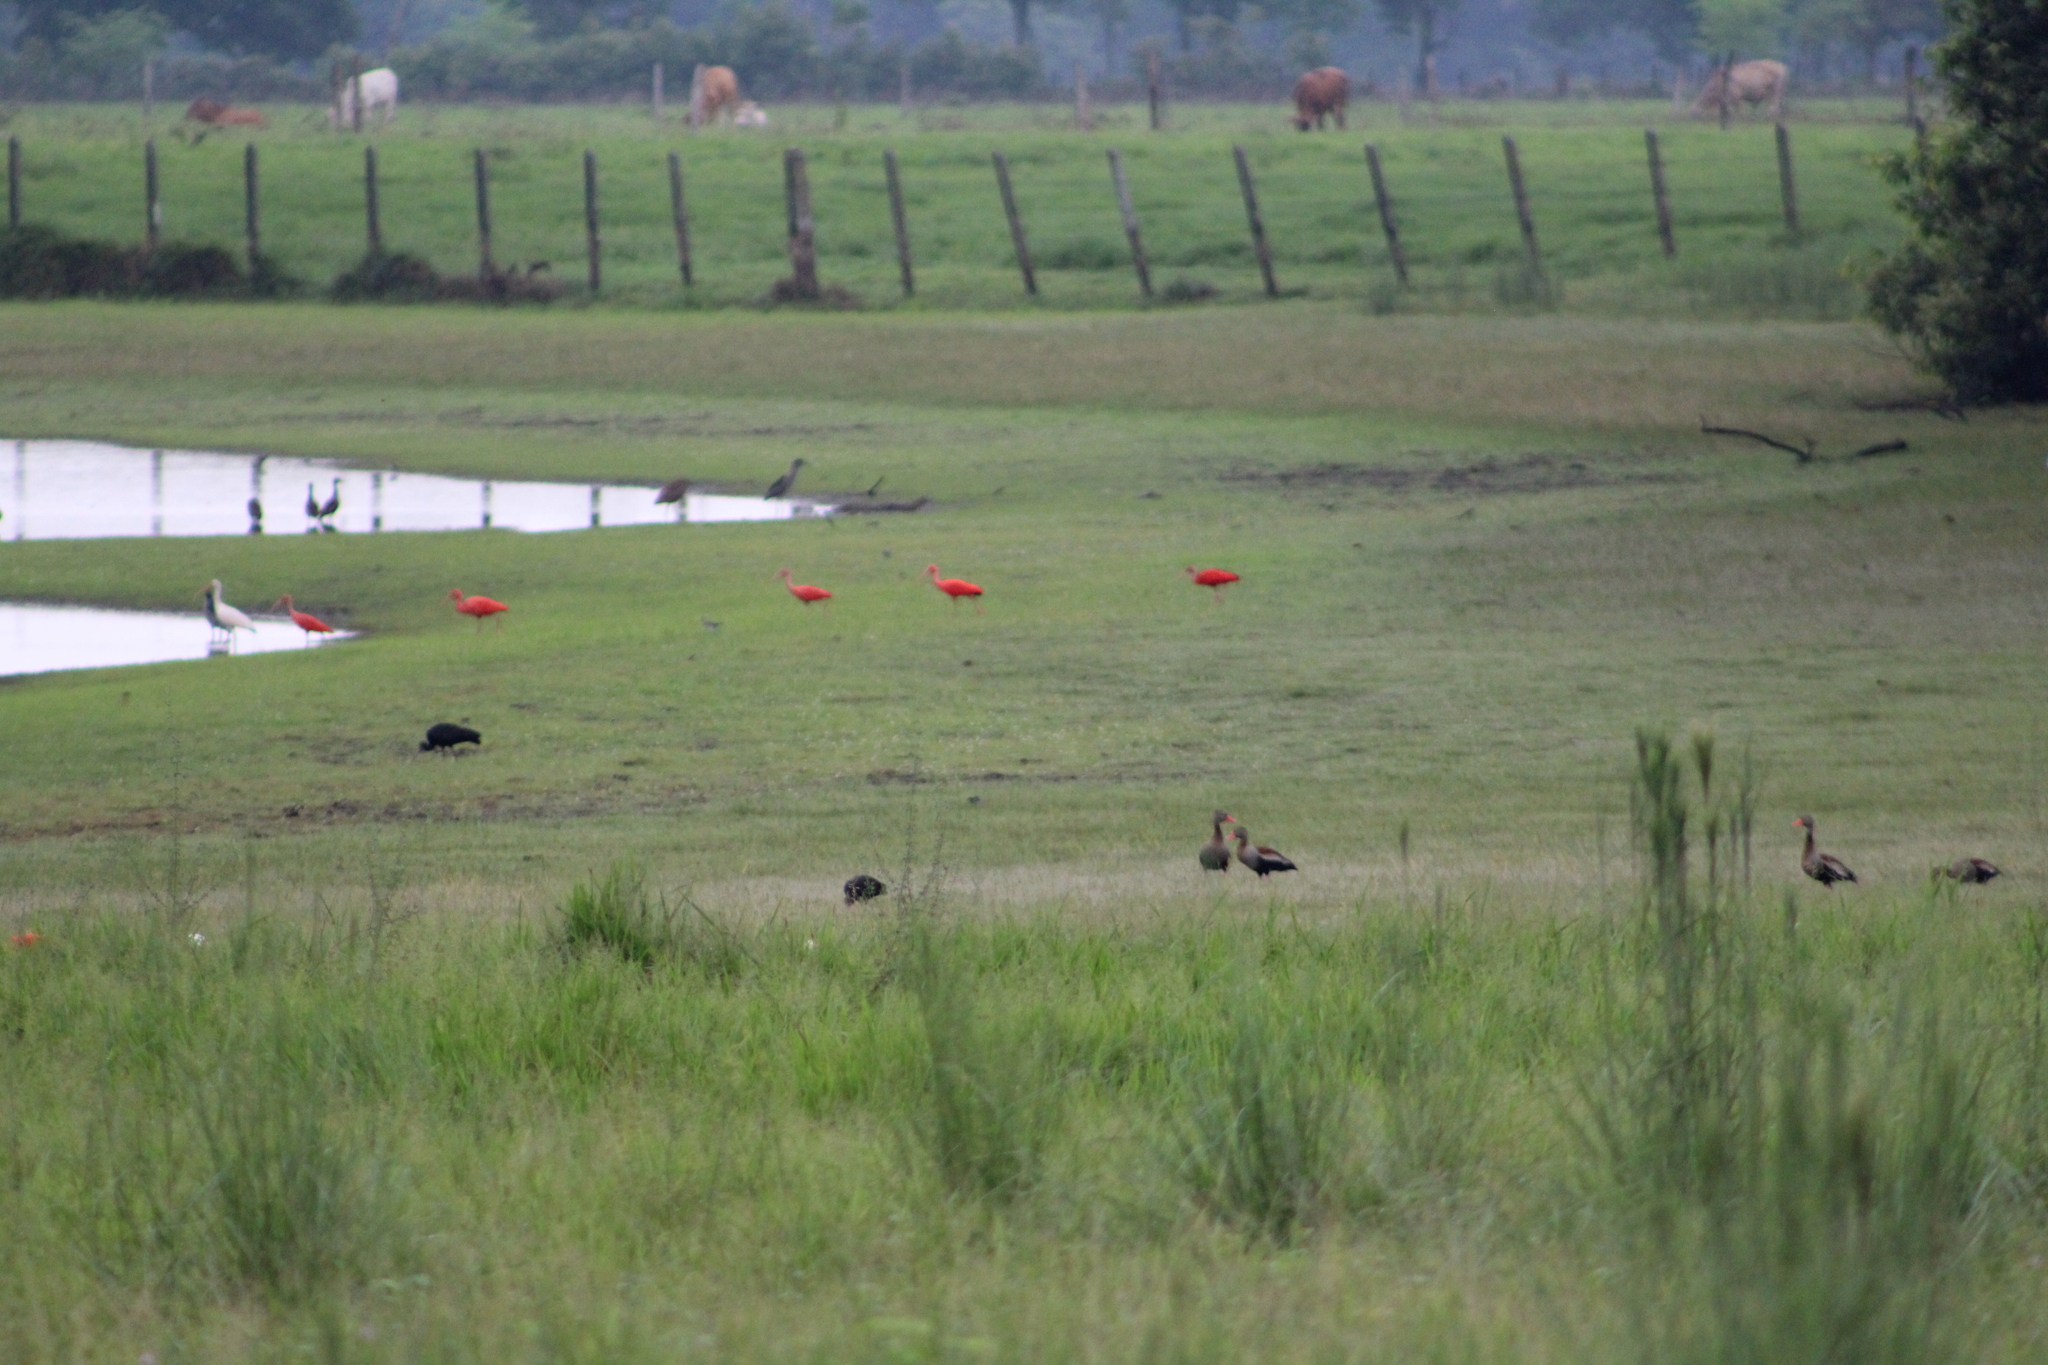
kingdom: Animalia
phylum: Chordata
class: Aves
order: Pelecaniformes
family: Threskiornithidae
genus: Eudocimus
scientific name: Eudocimus ruber
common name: Scarlet ibis
